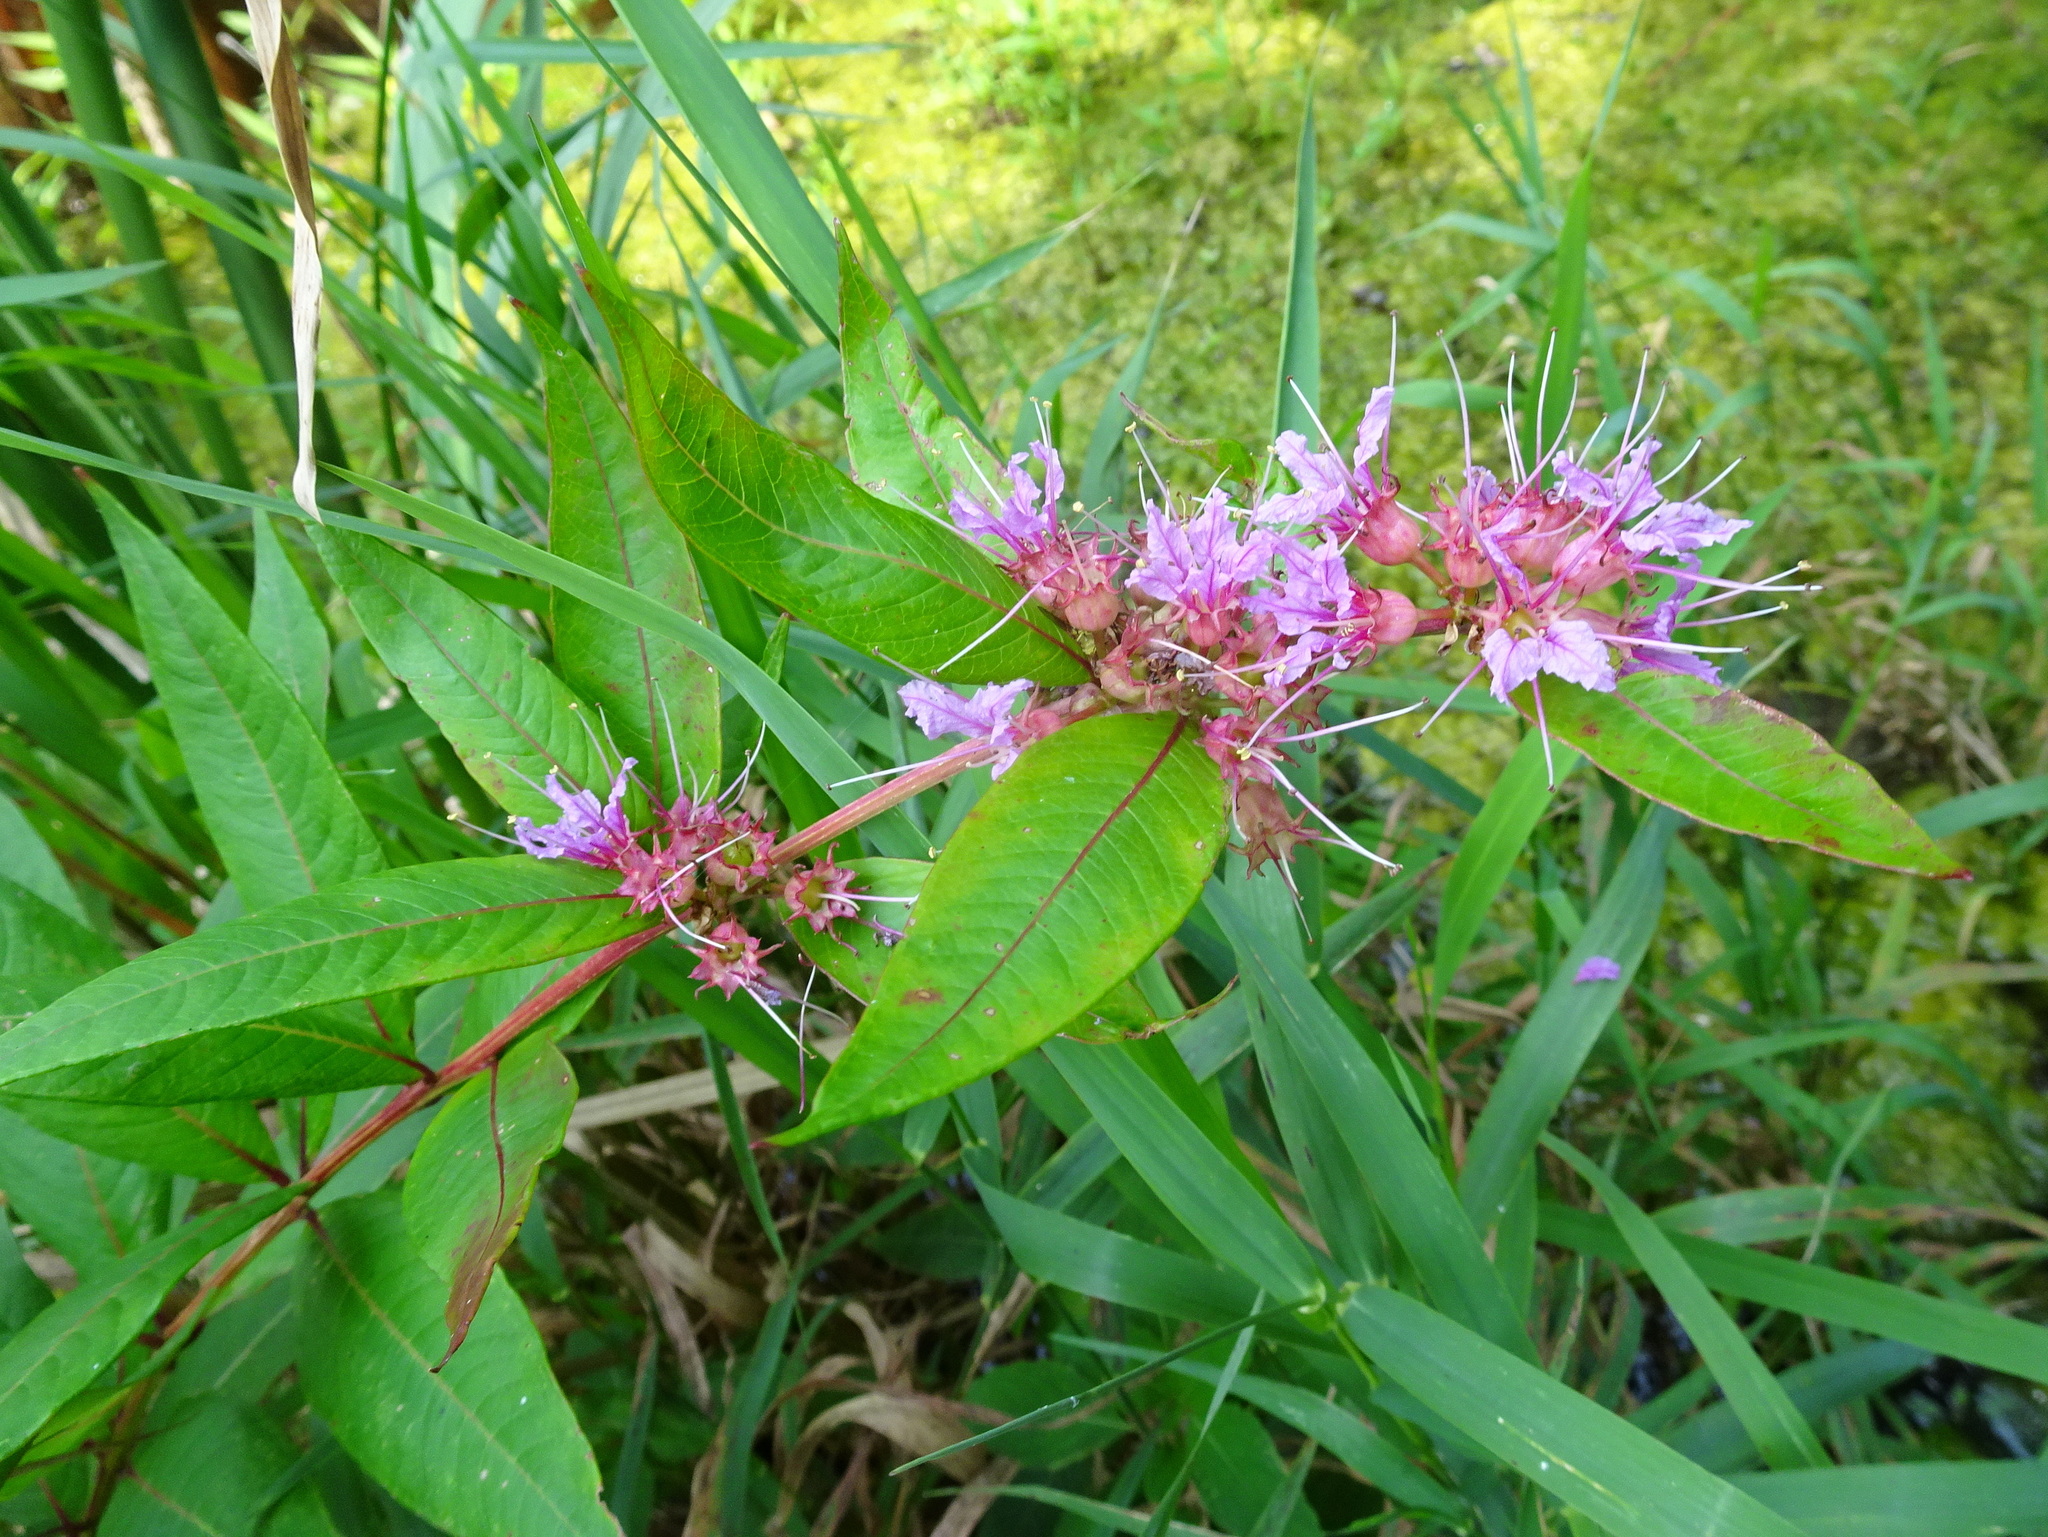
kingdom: Plantae
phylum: Tracheophyta
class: Magnoliopsida
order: Myrtales
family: Lythraceae
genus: Decodon
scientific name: Decodon verticillatus
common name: Hairy swamp loosestrife
